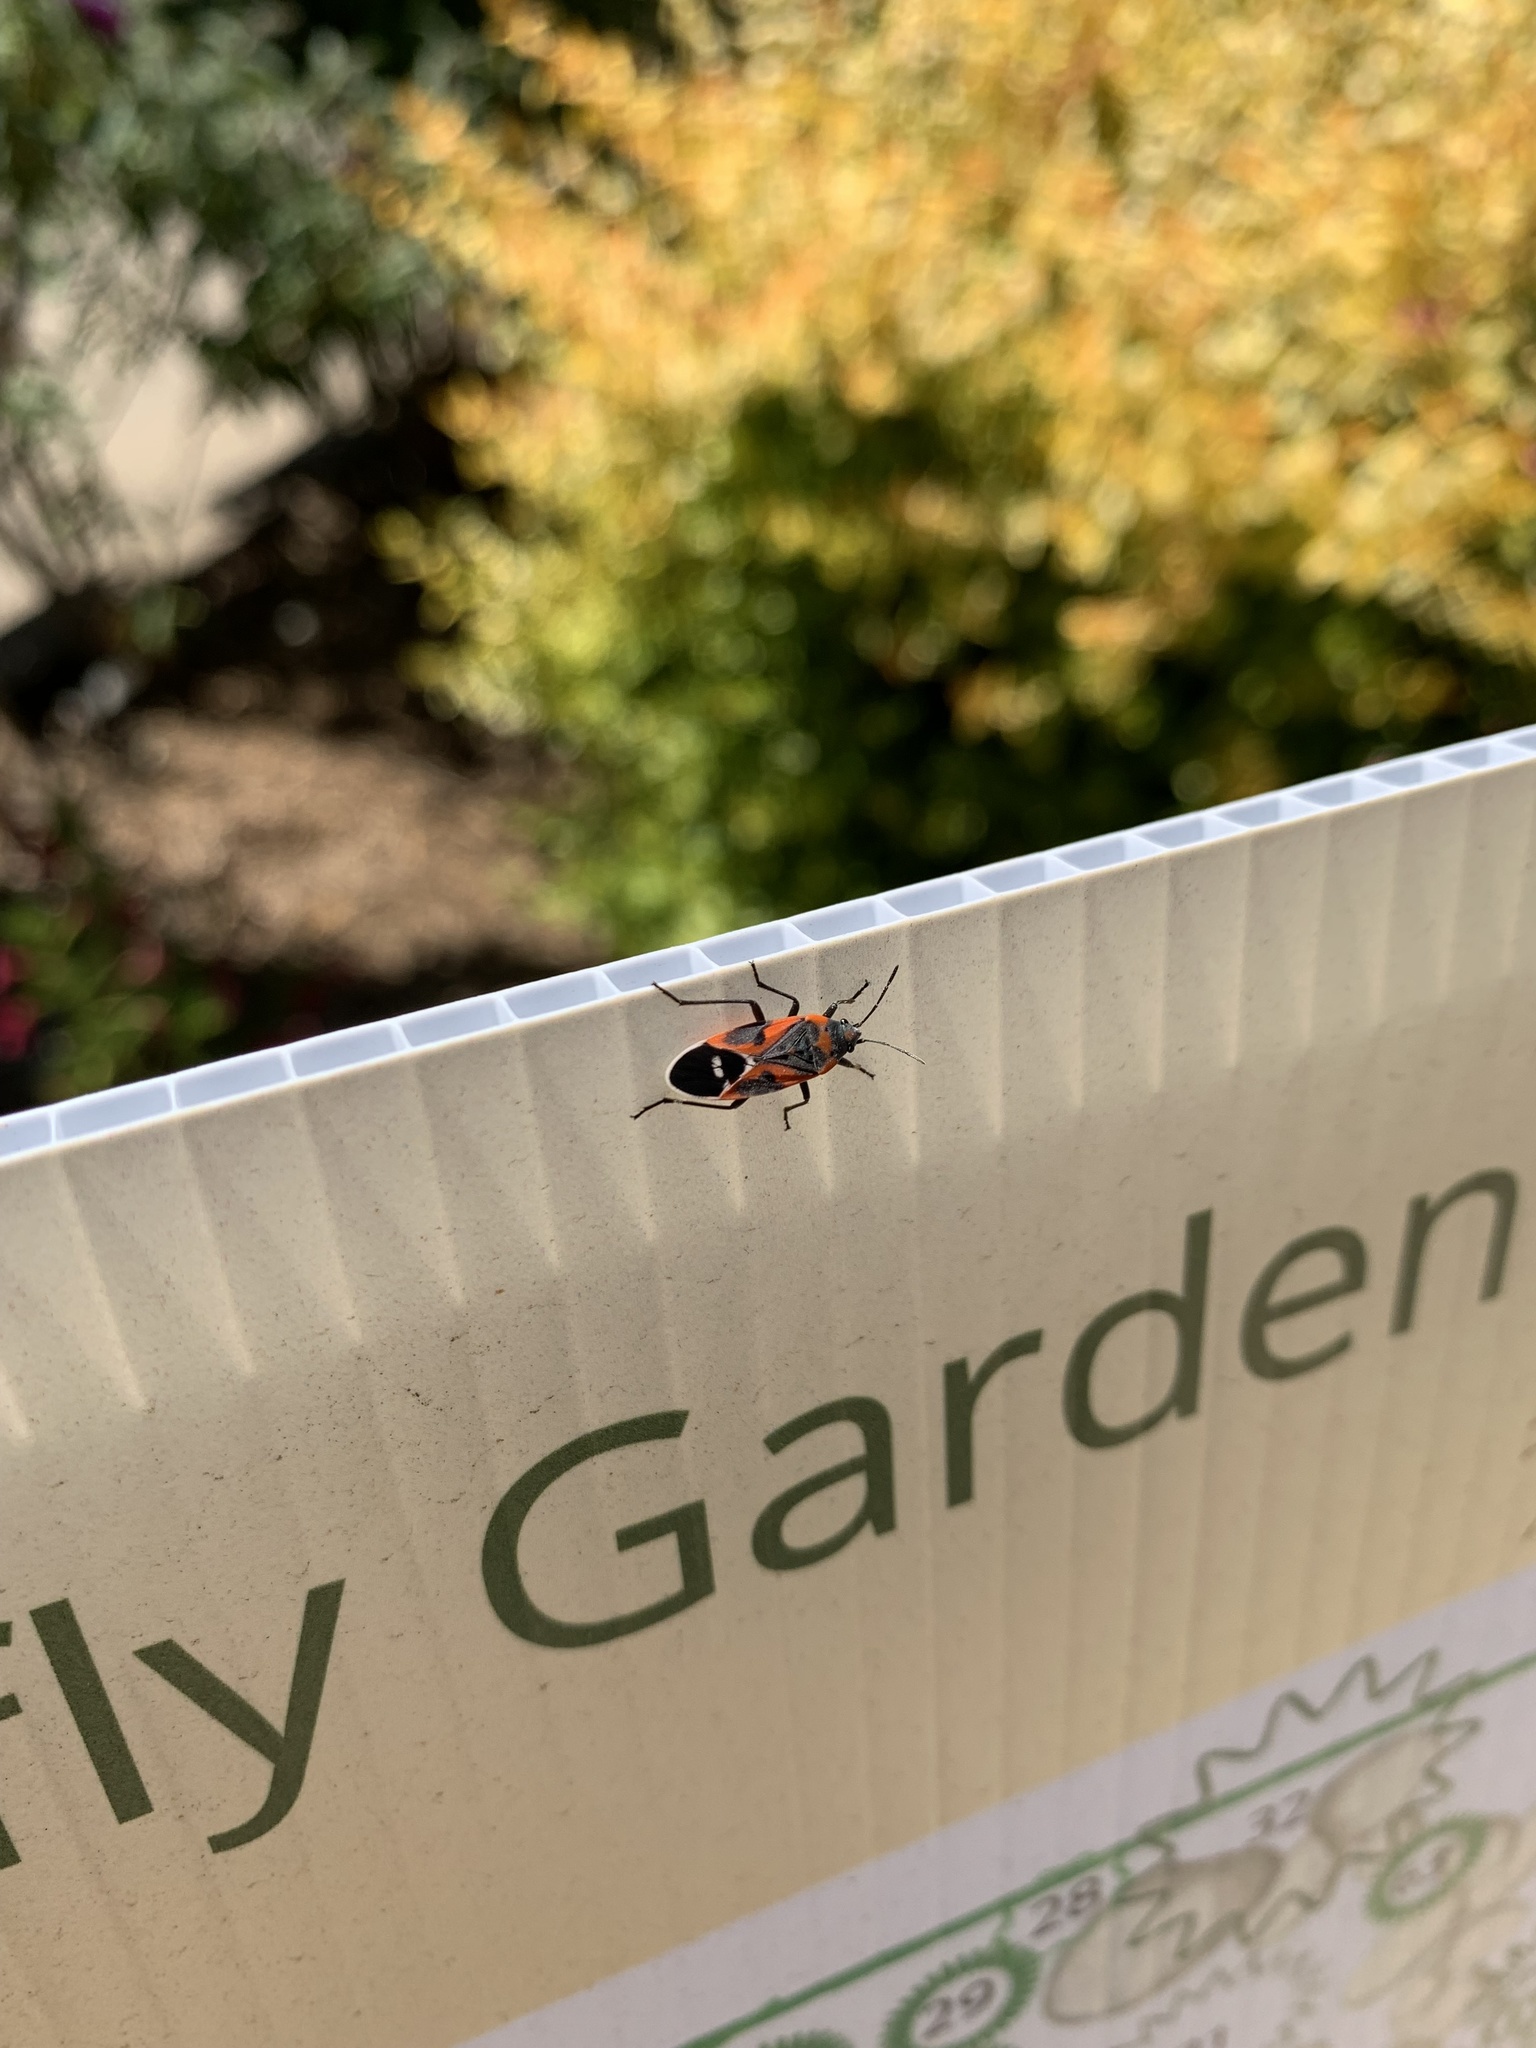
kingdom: Animalia
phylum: Arthropoda
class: Insecta
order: Hemiptera
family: Lygaeidae
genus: Lygaeus
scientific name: Lygaeus kalmii
